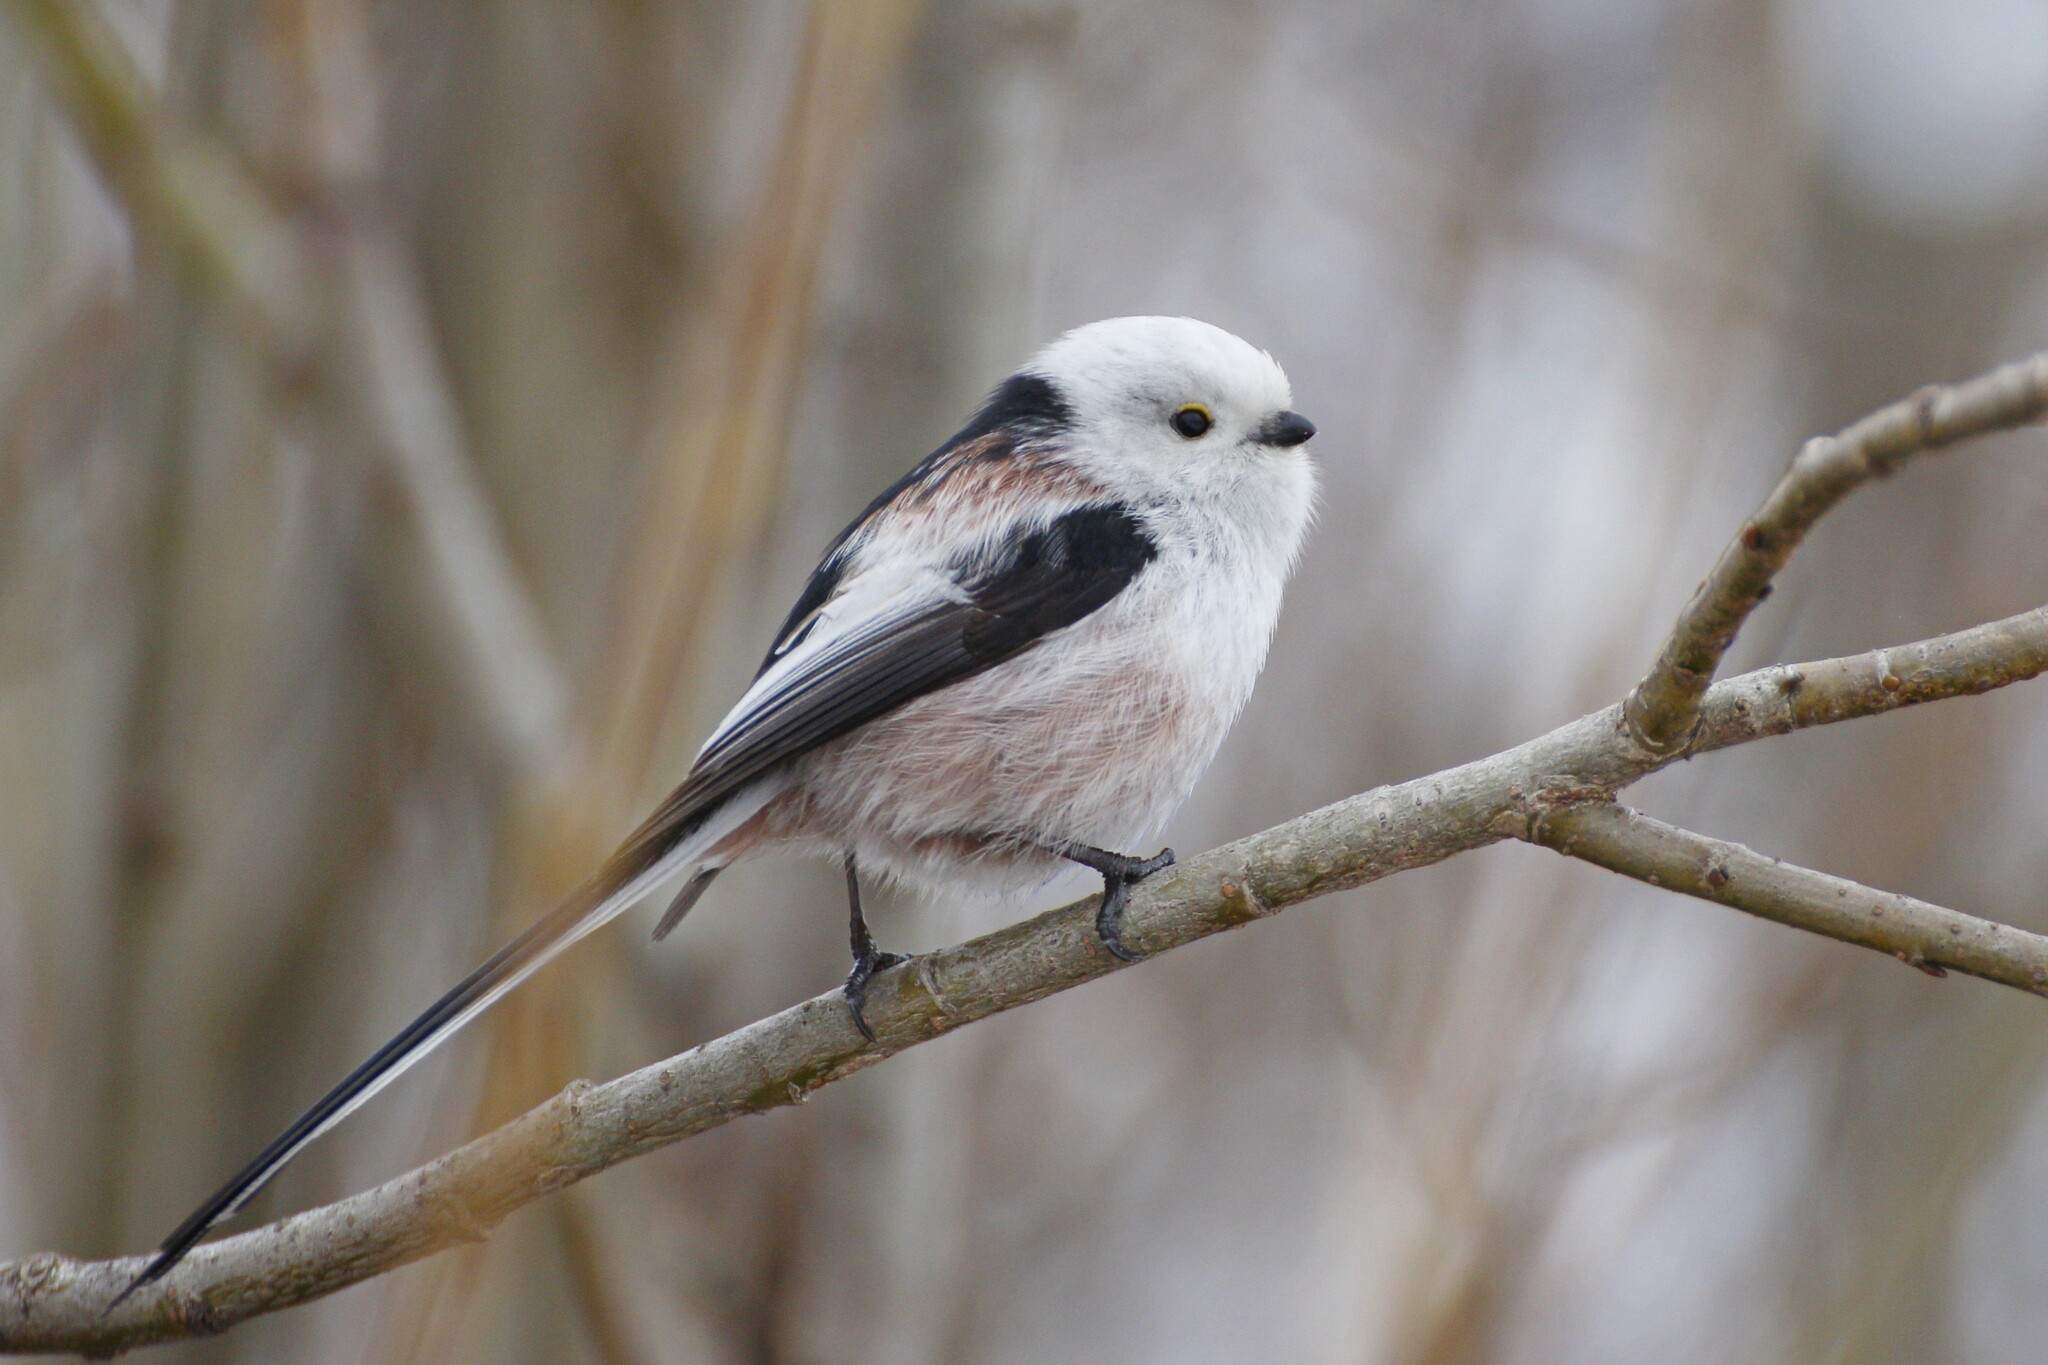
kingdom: Animalia
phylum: Chordata
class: Aves
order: Passeriformes
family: Aegithalidae
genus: Aegithalos
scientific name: Aegithalos caudatus
